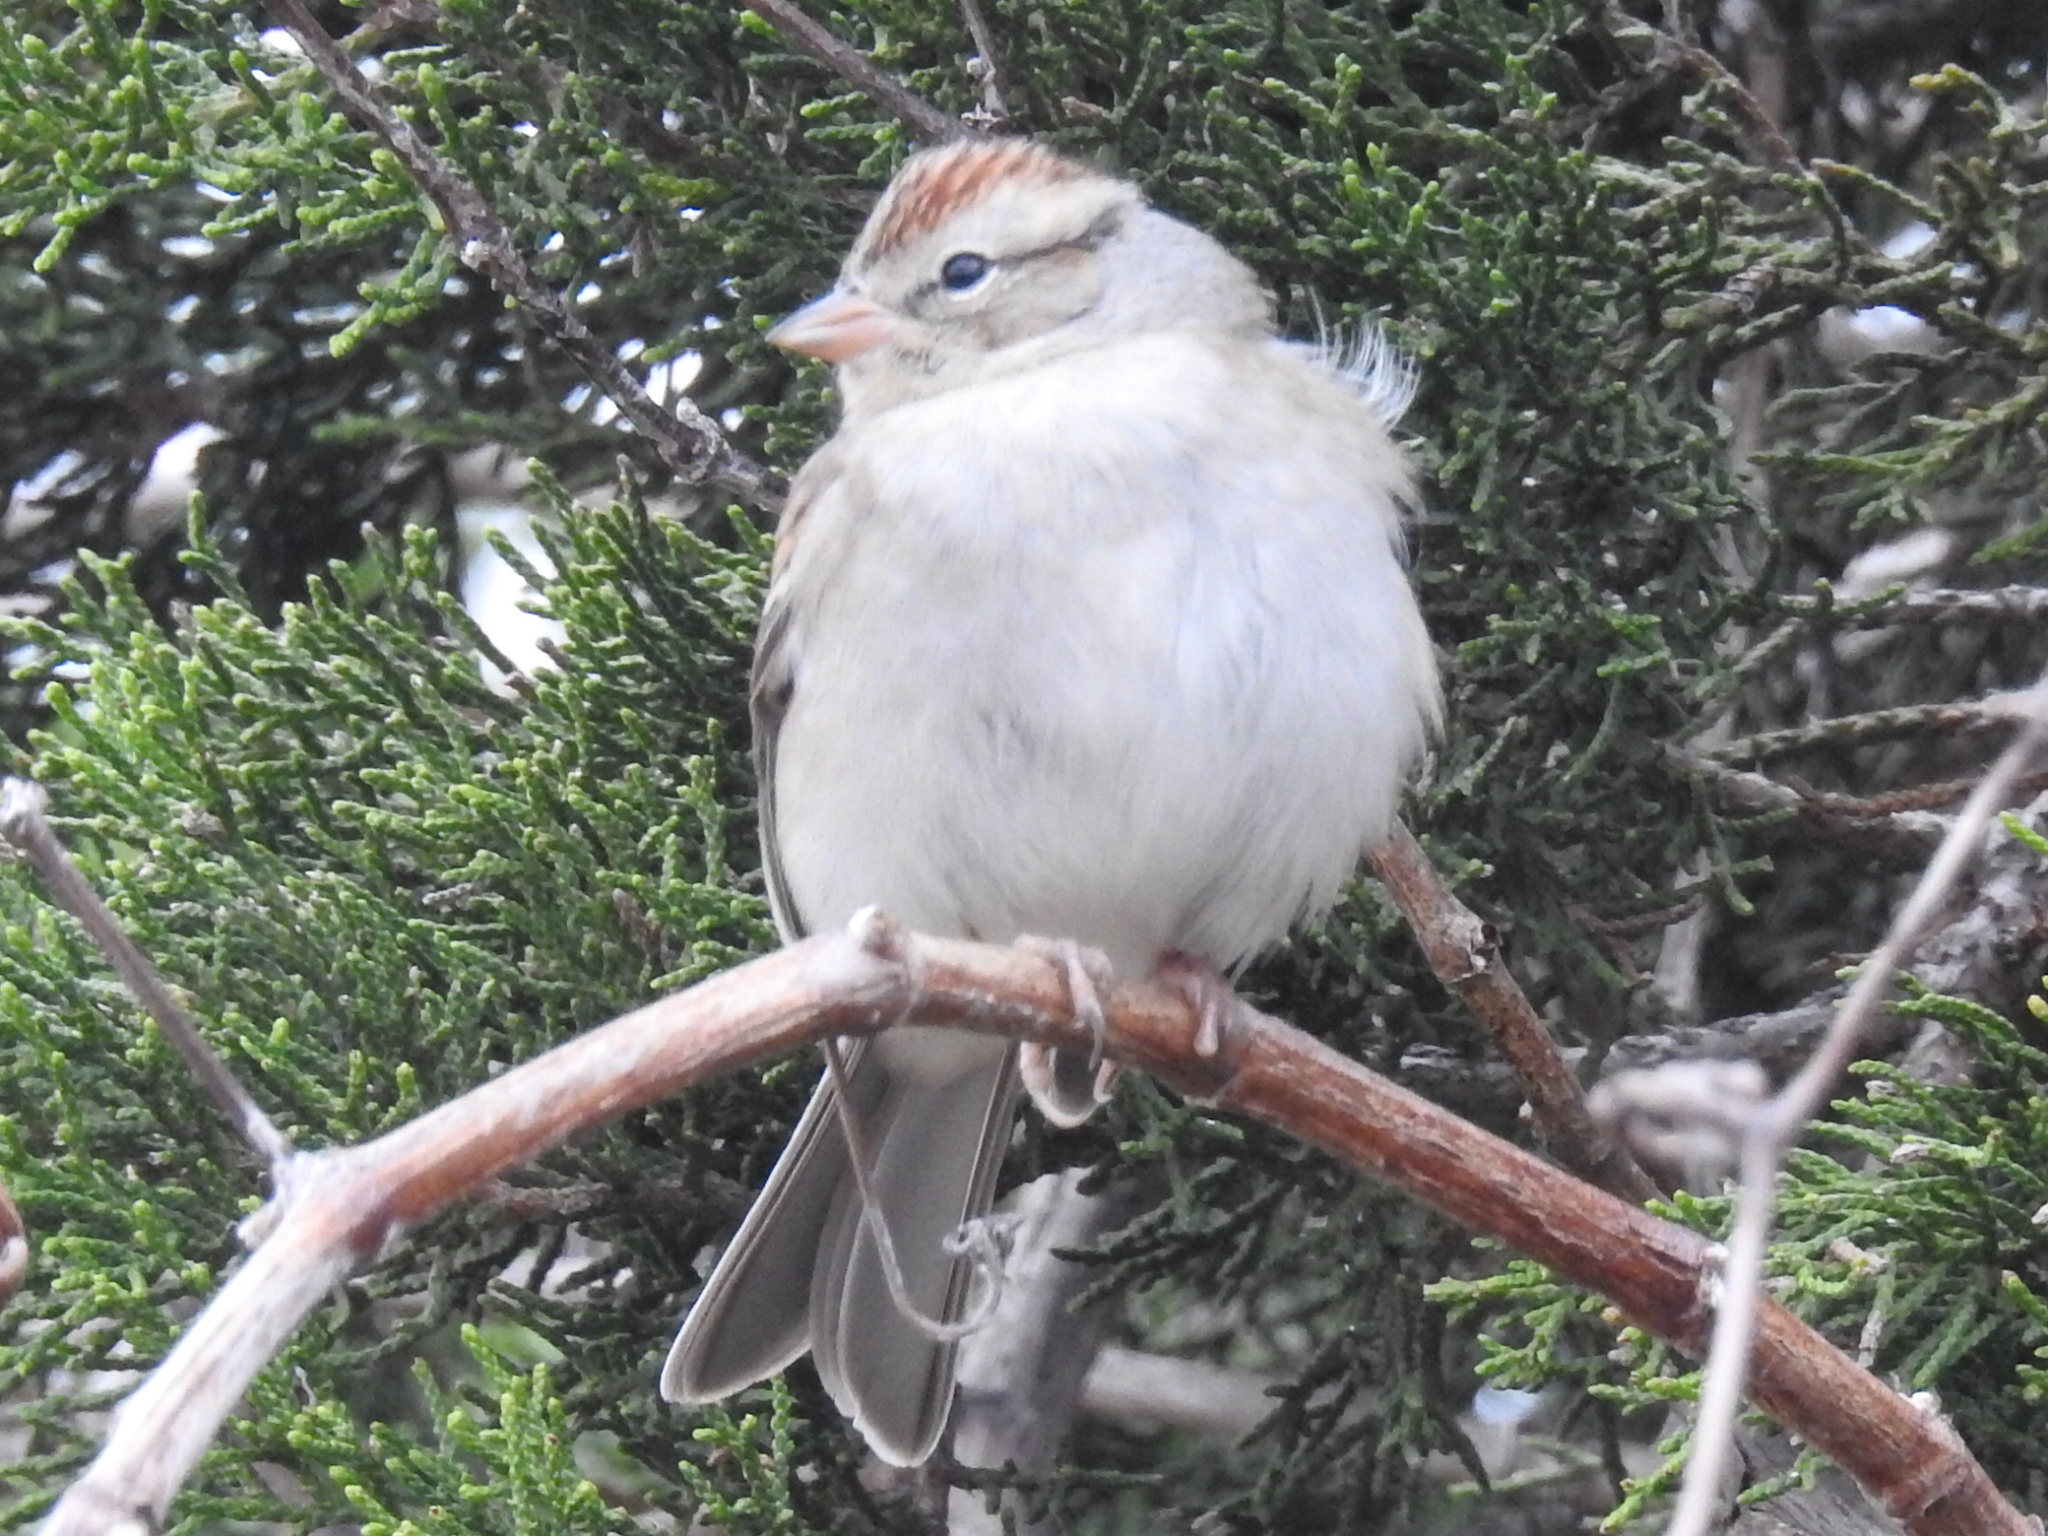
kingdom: Animalia
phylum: Chordata
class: Aves
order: Passeriformes
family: Passerellidae
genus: Spizella
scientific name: Spizella passerina
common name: Chipping sparrow
